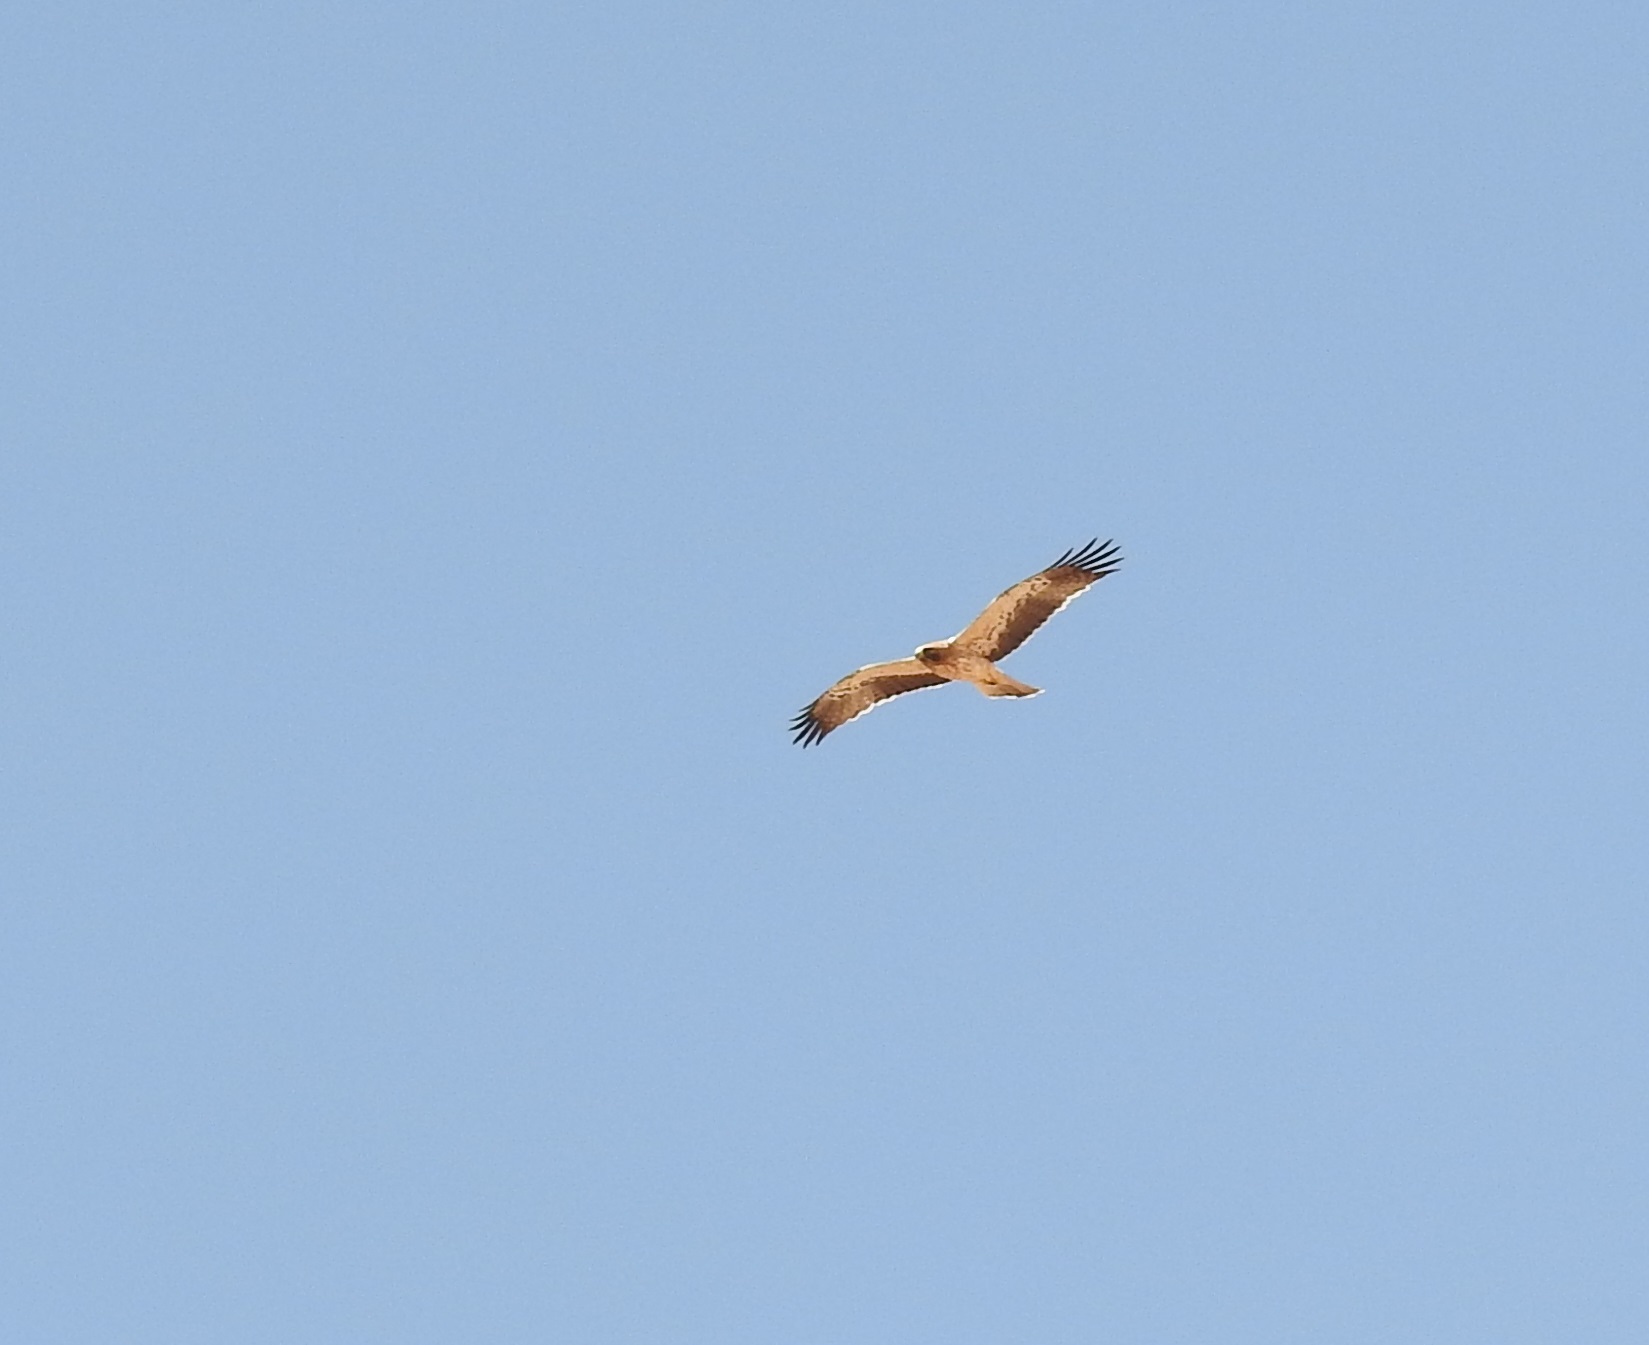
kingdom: Animalia
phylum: Chordata
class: Aves
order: Accipitriformes
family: Accipitridae
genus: Hieraaetus
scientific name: Hieraaetus pennatus
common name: Booted eagle
